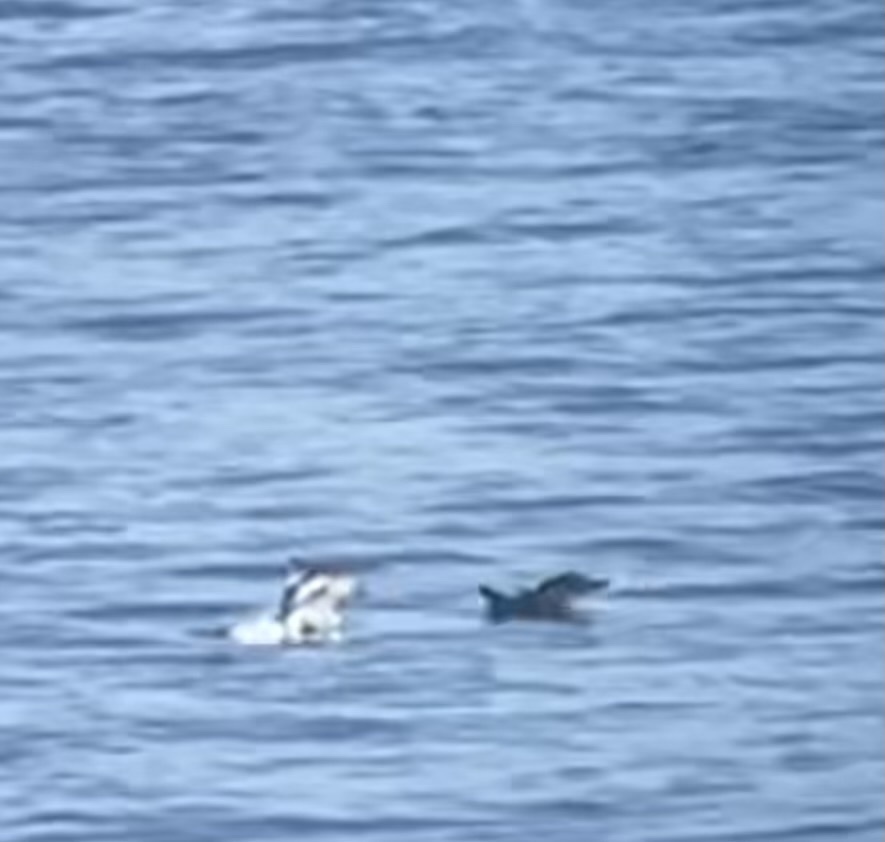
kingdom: Animalia
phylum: Chordata
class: Mammalia
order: Cetacea
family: Delphinidae
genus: Delphinus
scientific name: Delphinus delphis
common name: Common dolphin
